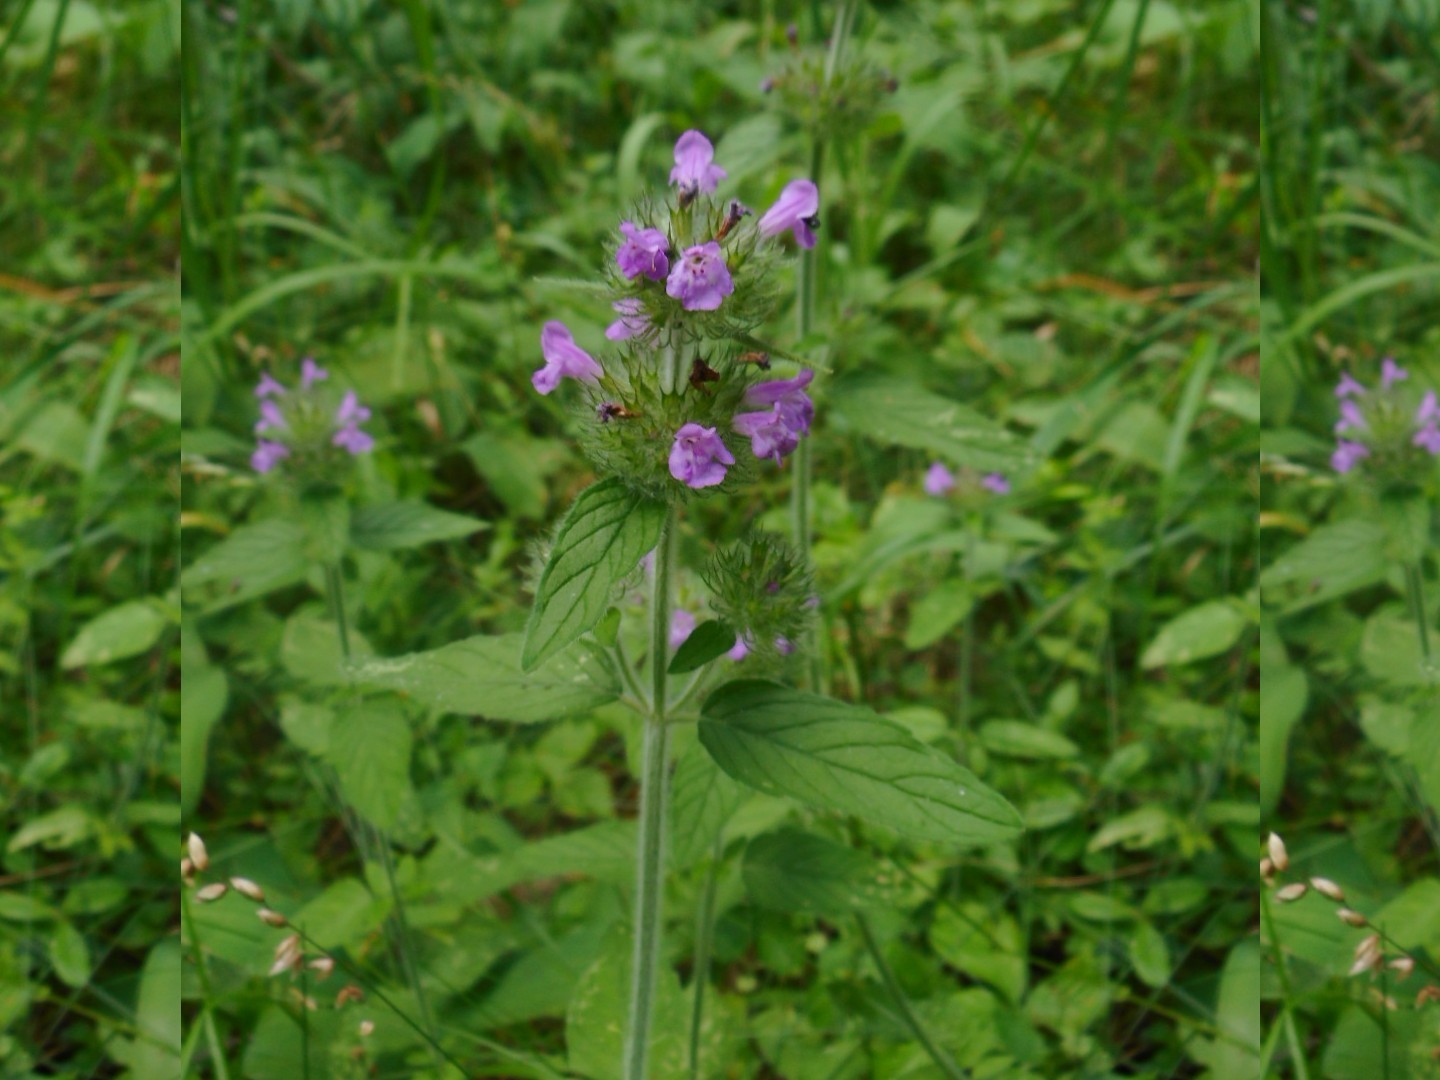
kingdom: Plantae
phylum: Tracheophyta
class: Magnoliopsida
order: Lamiales
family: Lamiaceae
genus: Clinopodium
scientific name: Clinopodium vulgare
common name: Wild basil
